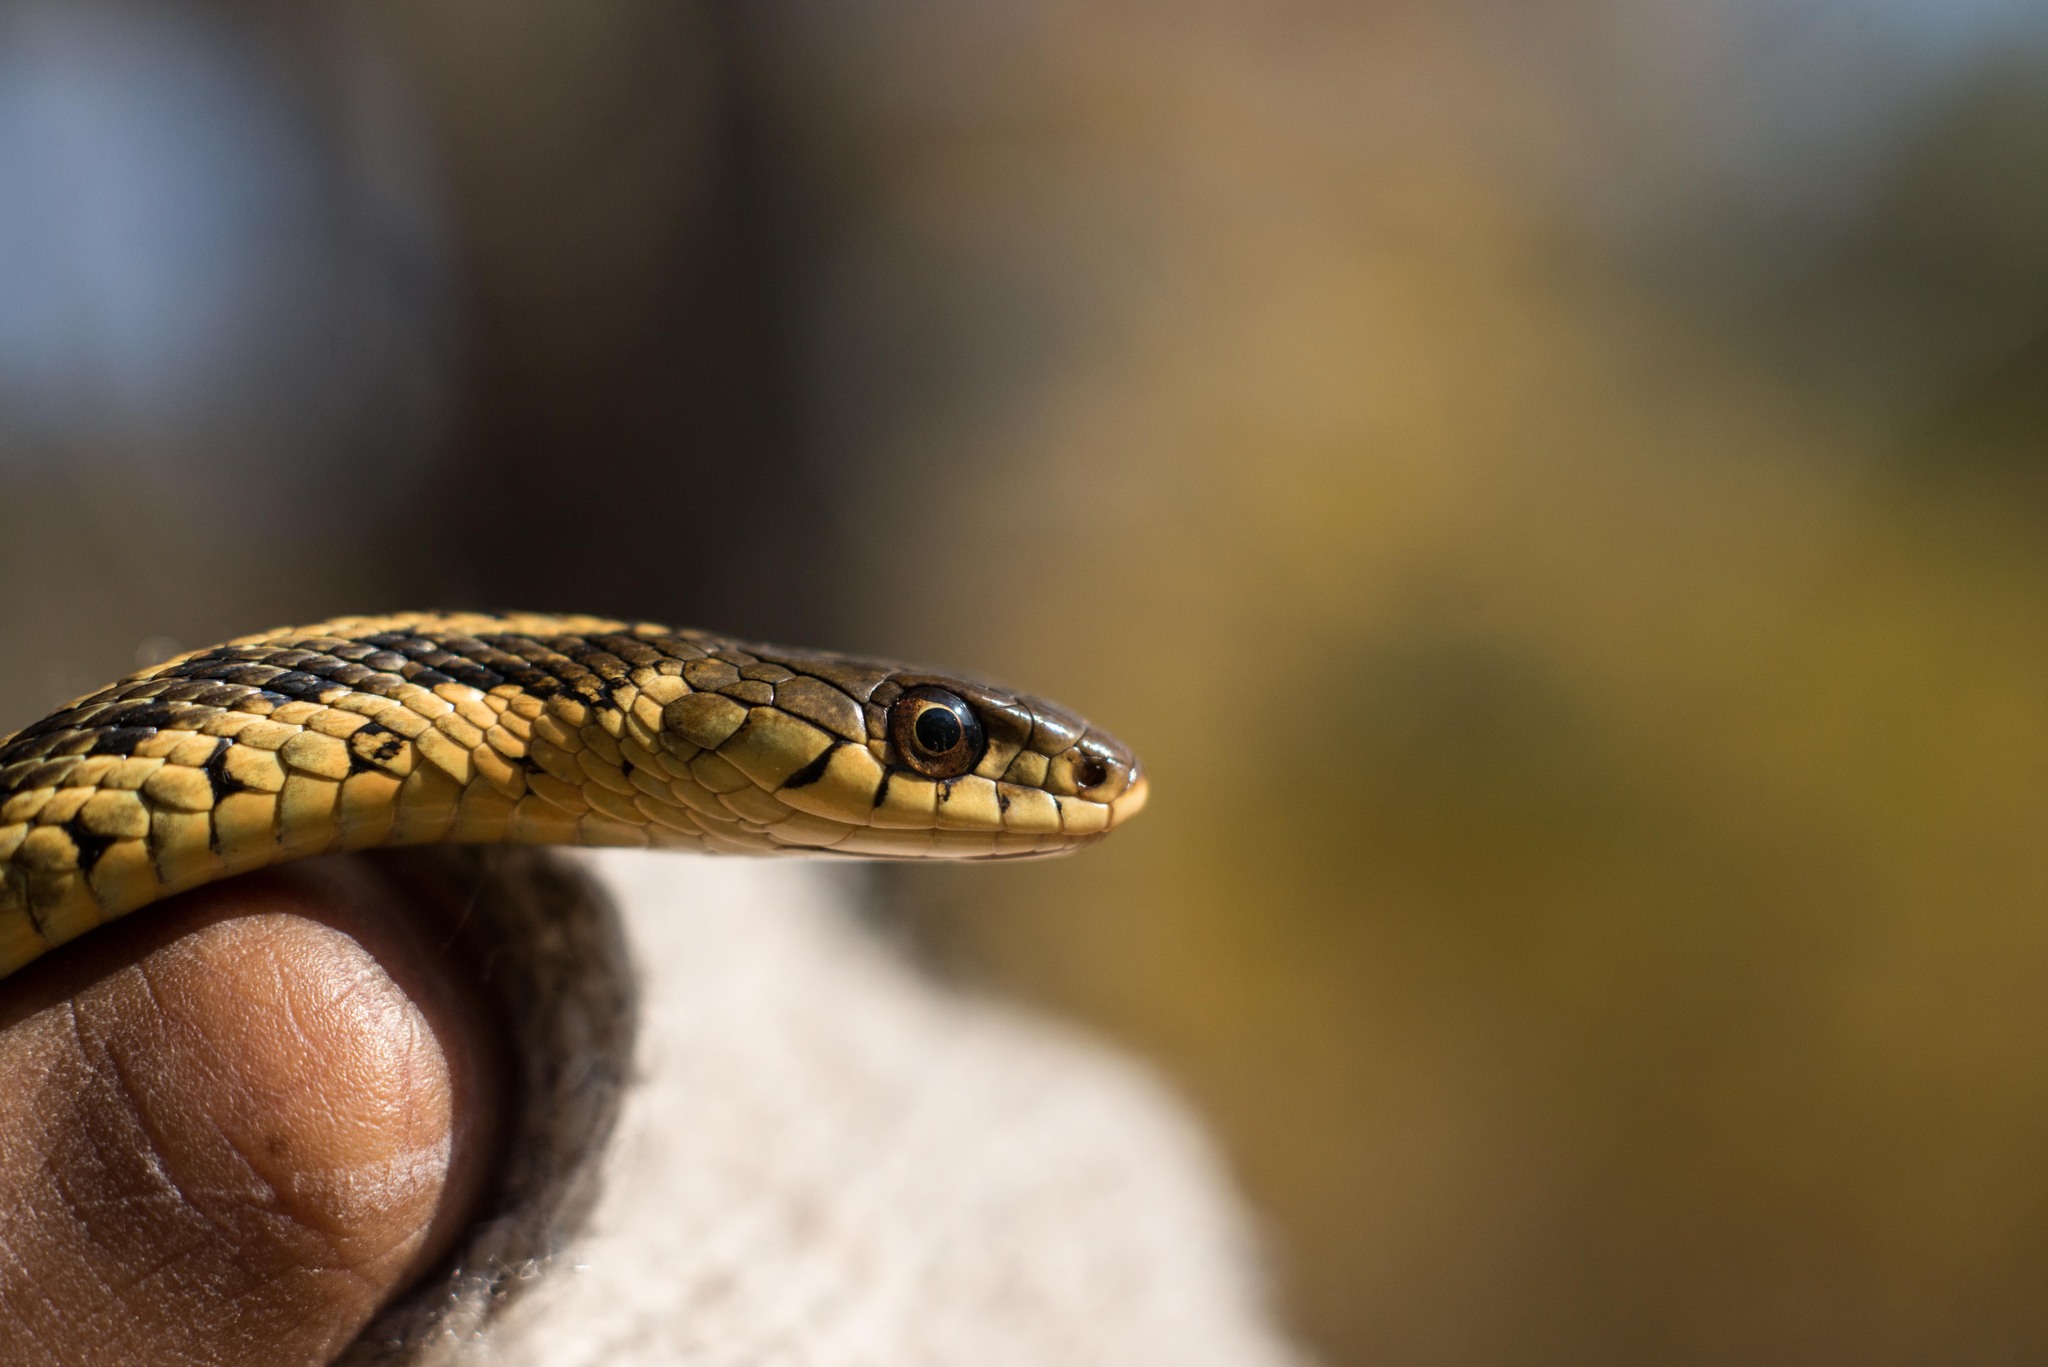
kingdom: Animalia
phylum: Chordata
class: Squamata
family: Colubridae
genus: Thamnophis
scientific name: Thamnophis sirtalis
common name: Common garter snake
